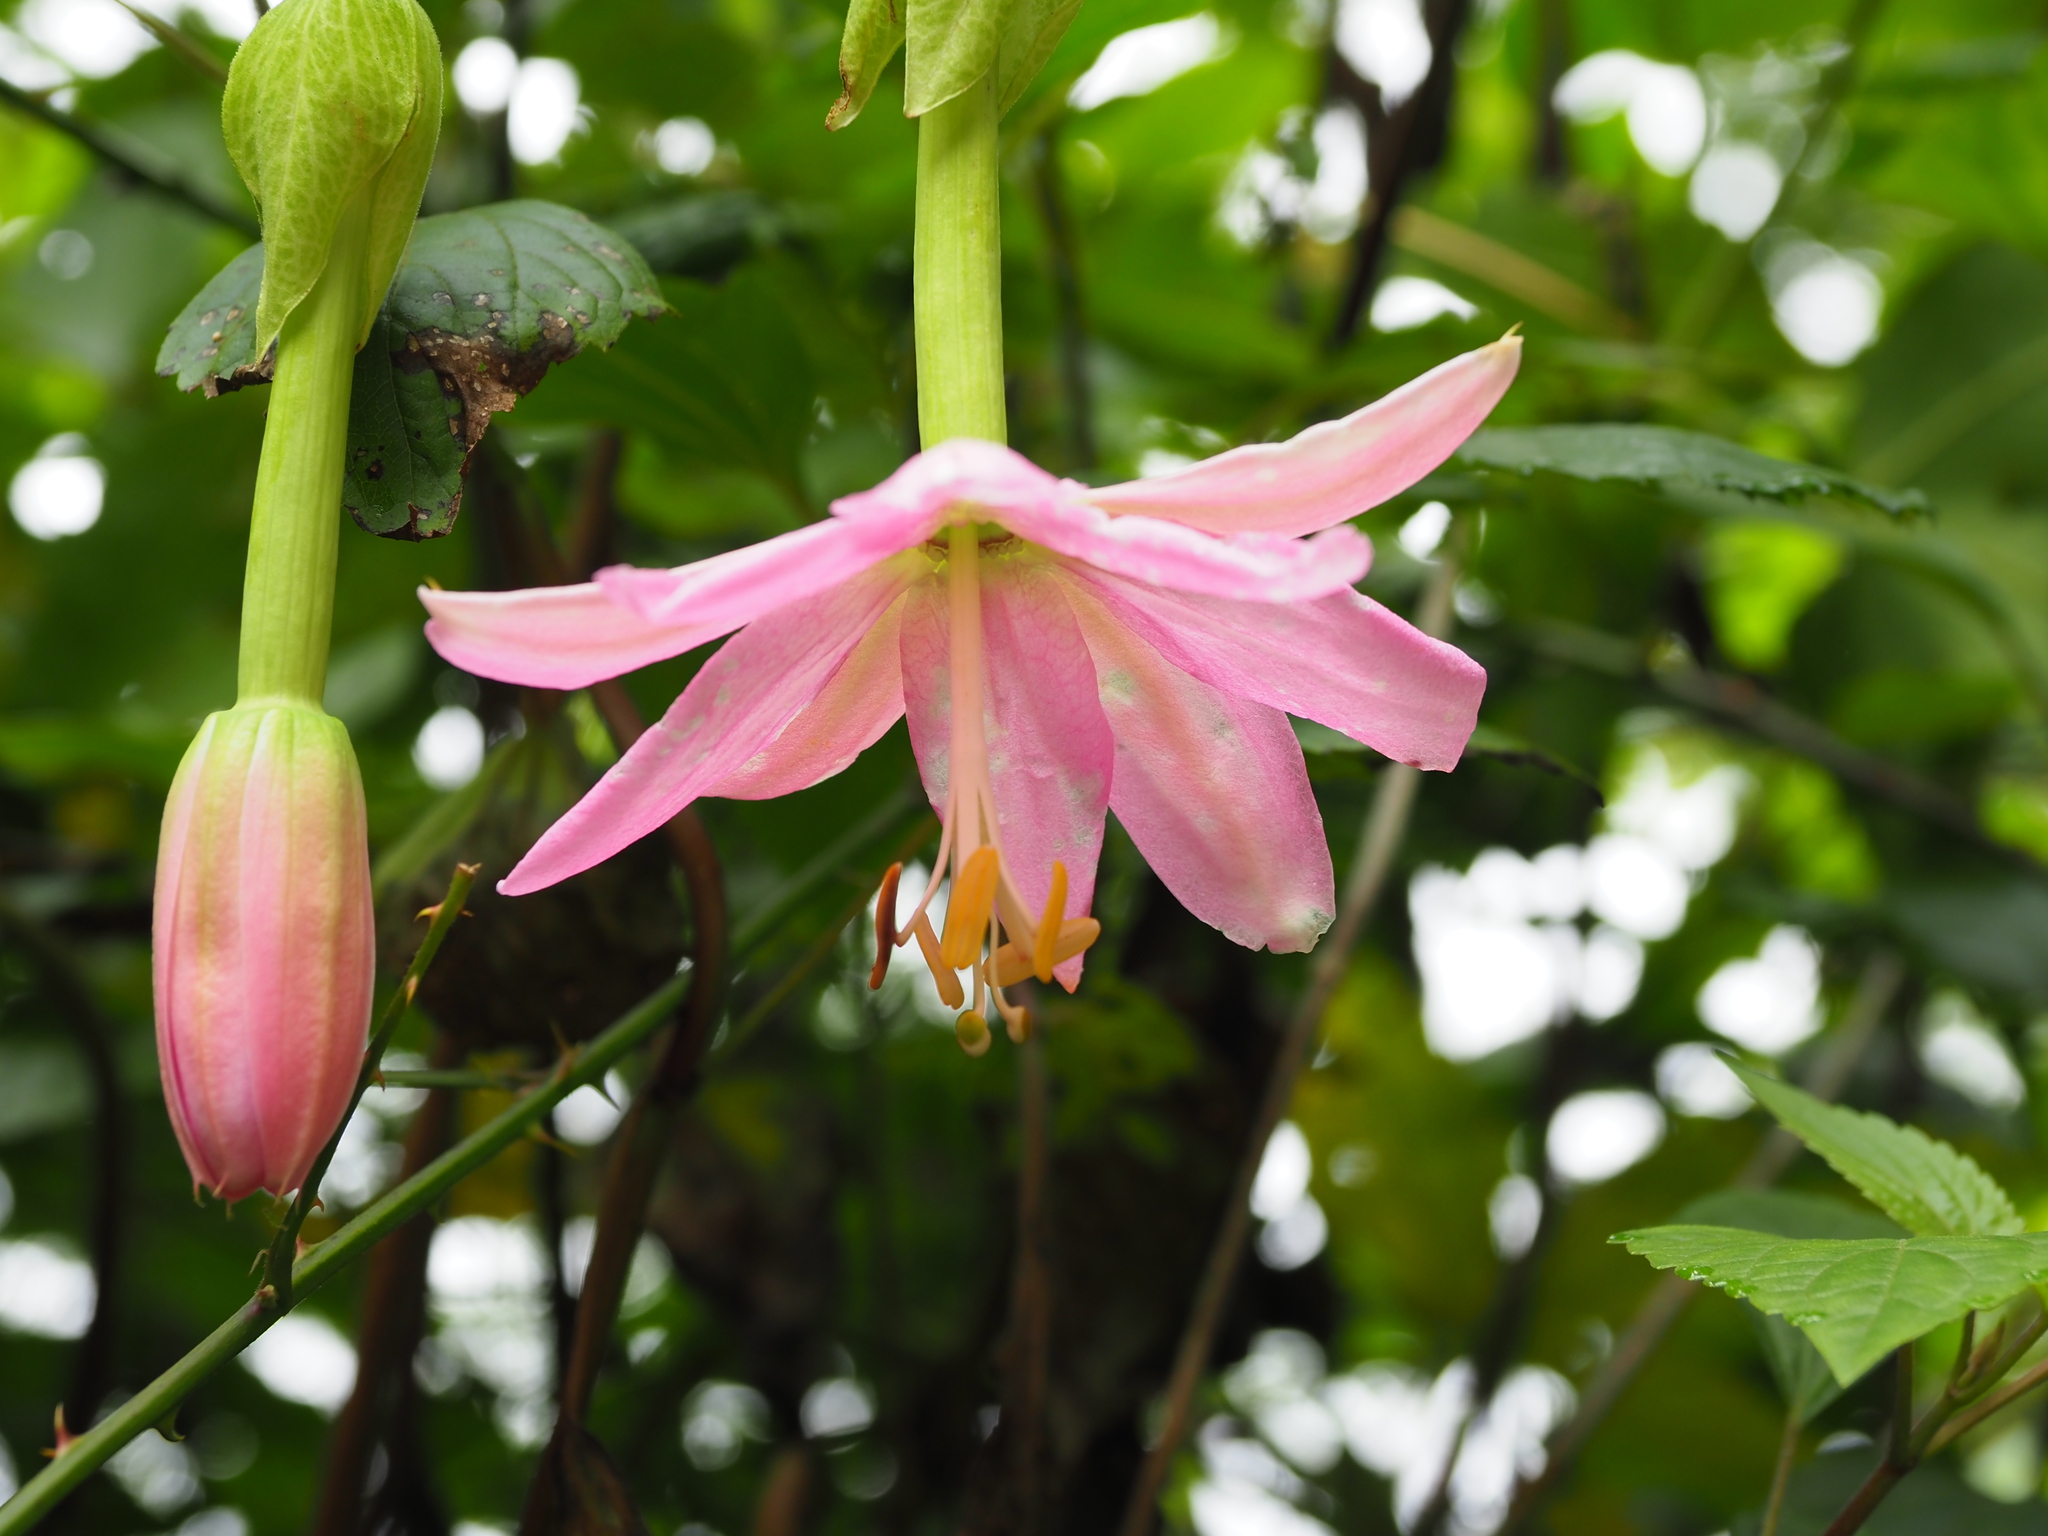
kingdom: Plantae
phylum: Tracheophyta
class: Magnoliopsida
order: Malpighiales
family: Passifloraceae
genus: Passiflora
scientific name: Passiflora tarminiana
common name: Banana poka
